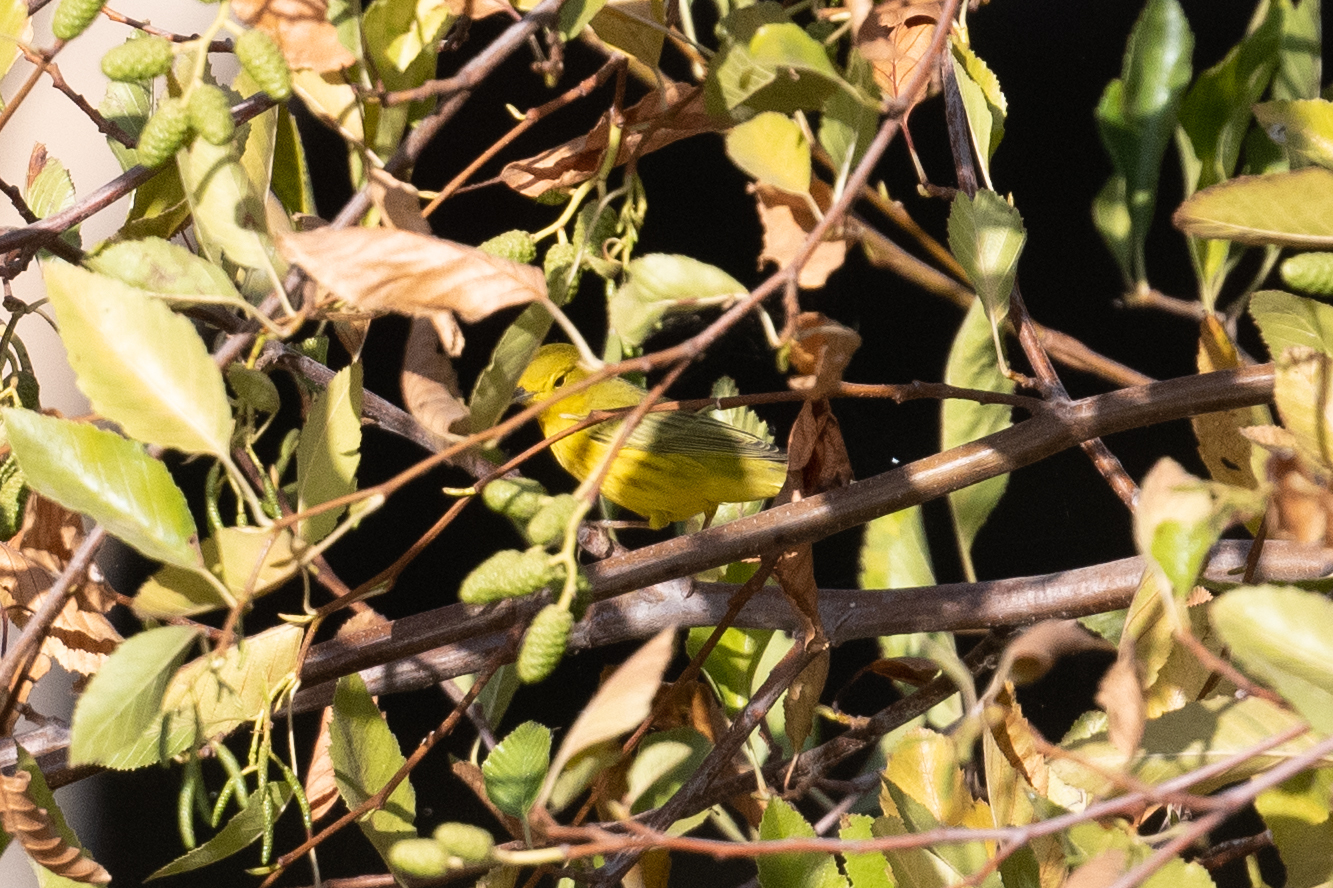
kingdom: Animalia
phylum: Chordata
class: Aves
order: Passeriformes
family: Parulidae
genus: Setophaga
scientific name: Setophaga petechia
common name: Yellow warbler
